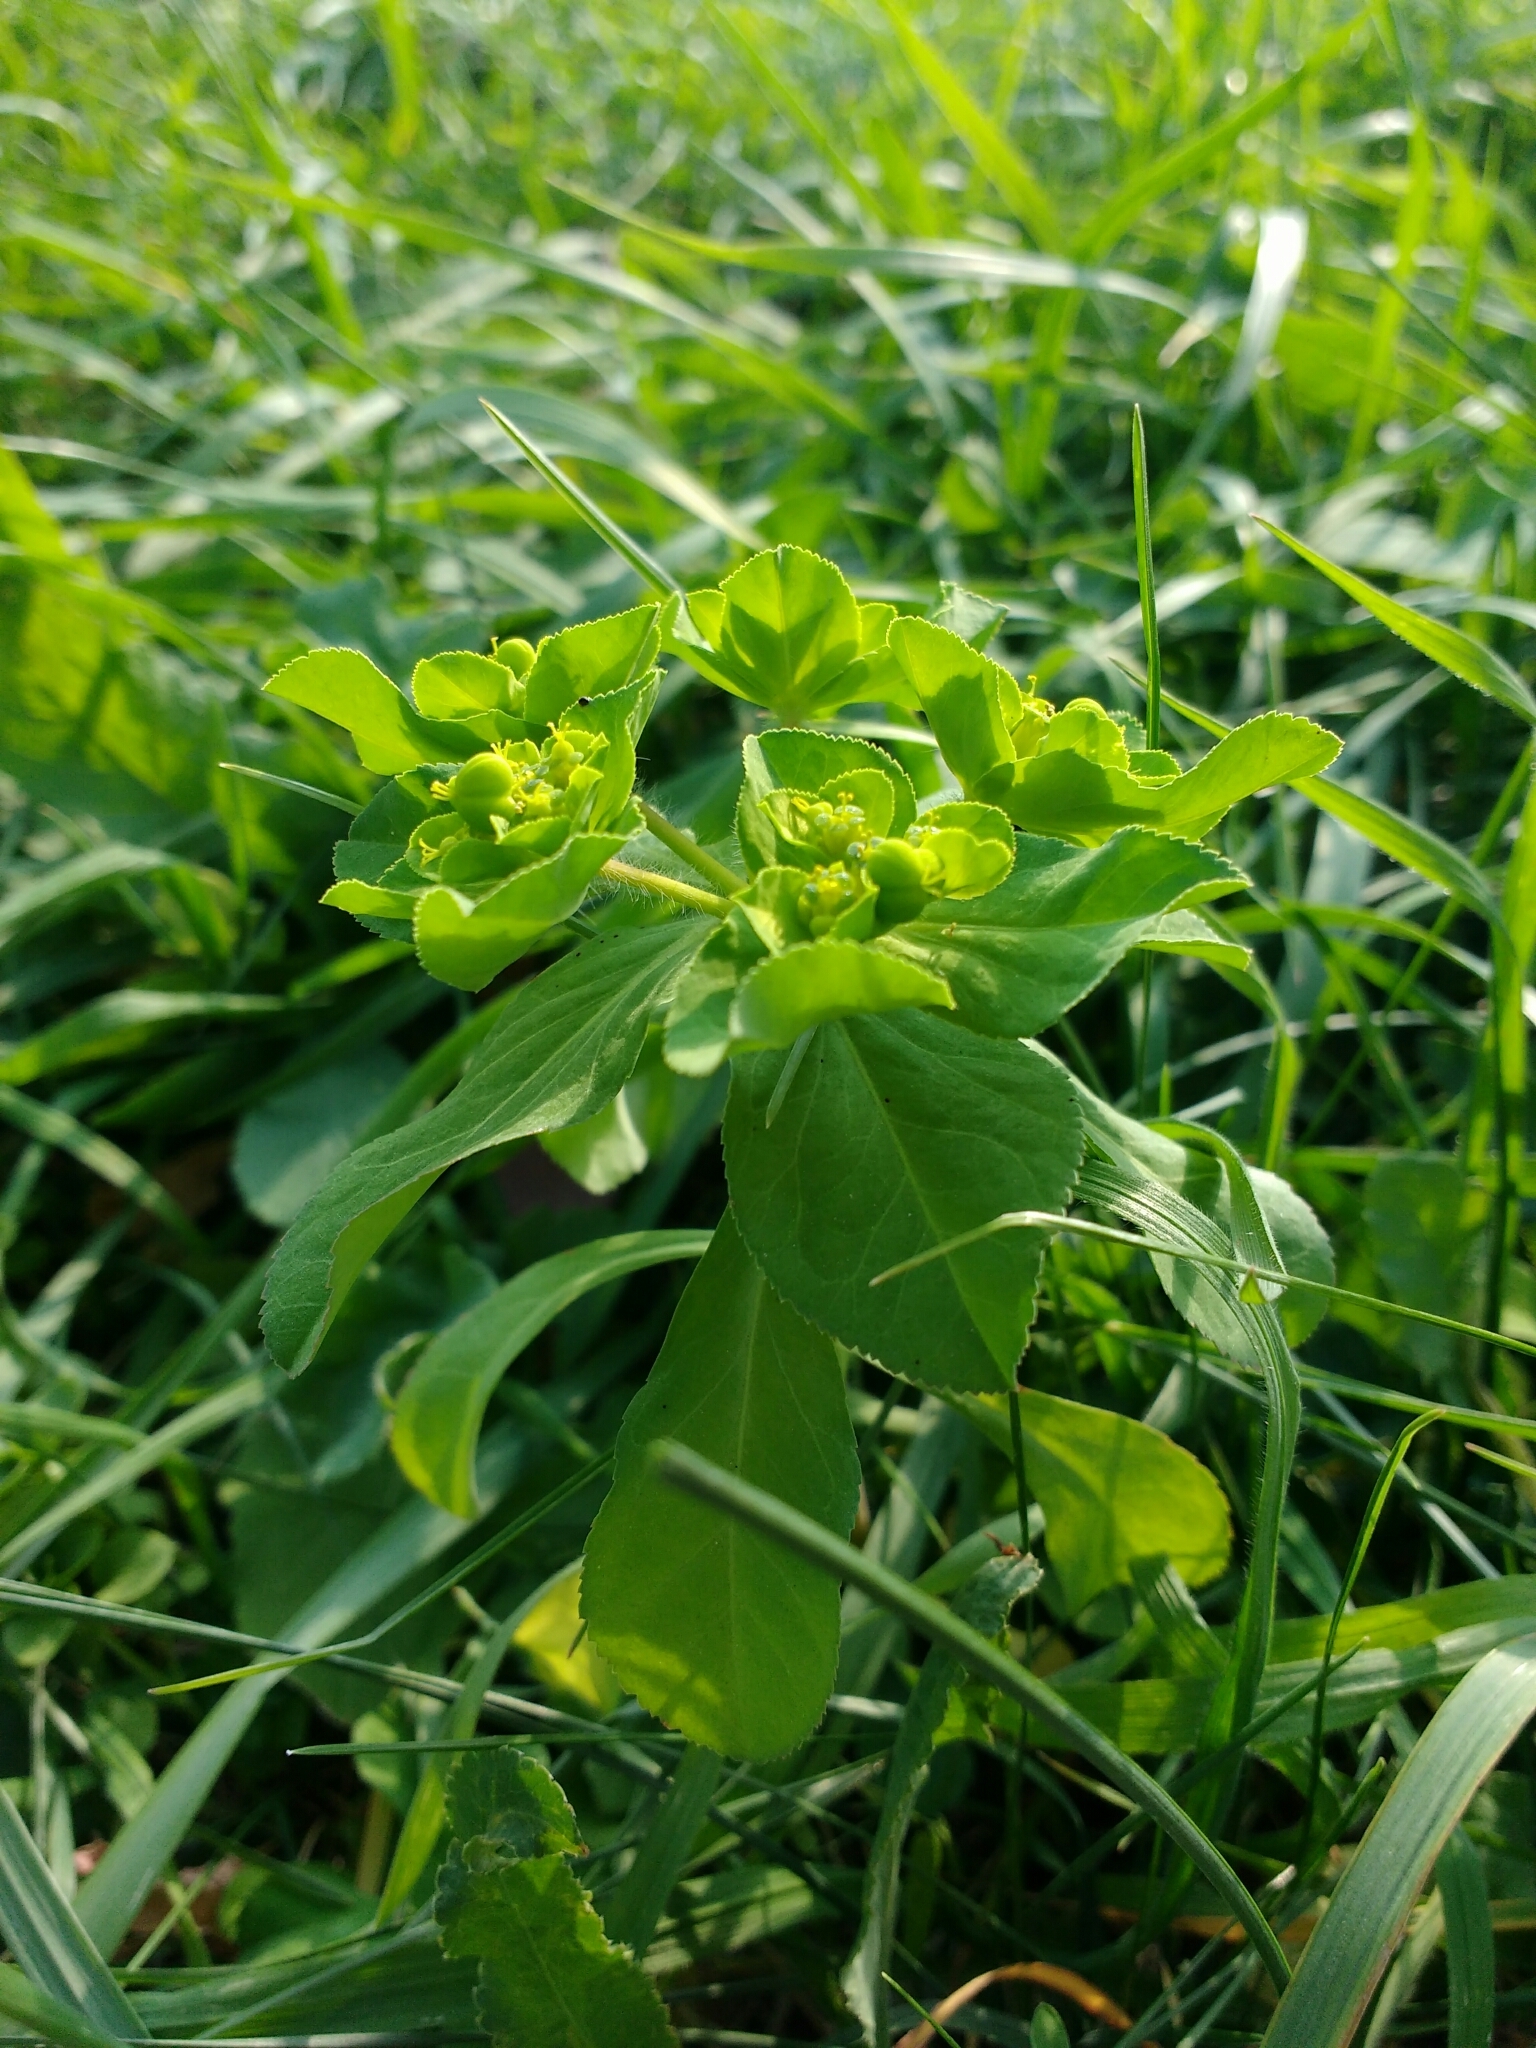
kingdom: Plantae
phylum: Tracheophyta
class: Magnoliopsida
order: Malpighiales
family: Euphorbiaceae
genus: Euphorbia
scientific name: Euphorbia helioscopia
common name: Sun spurge
